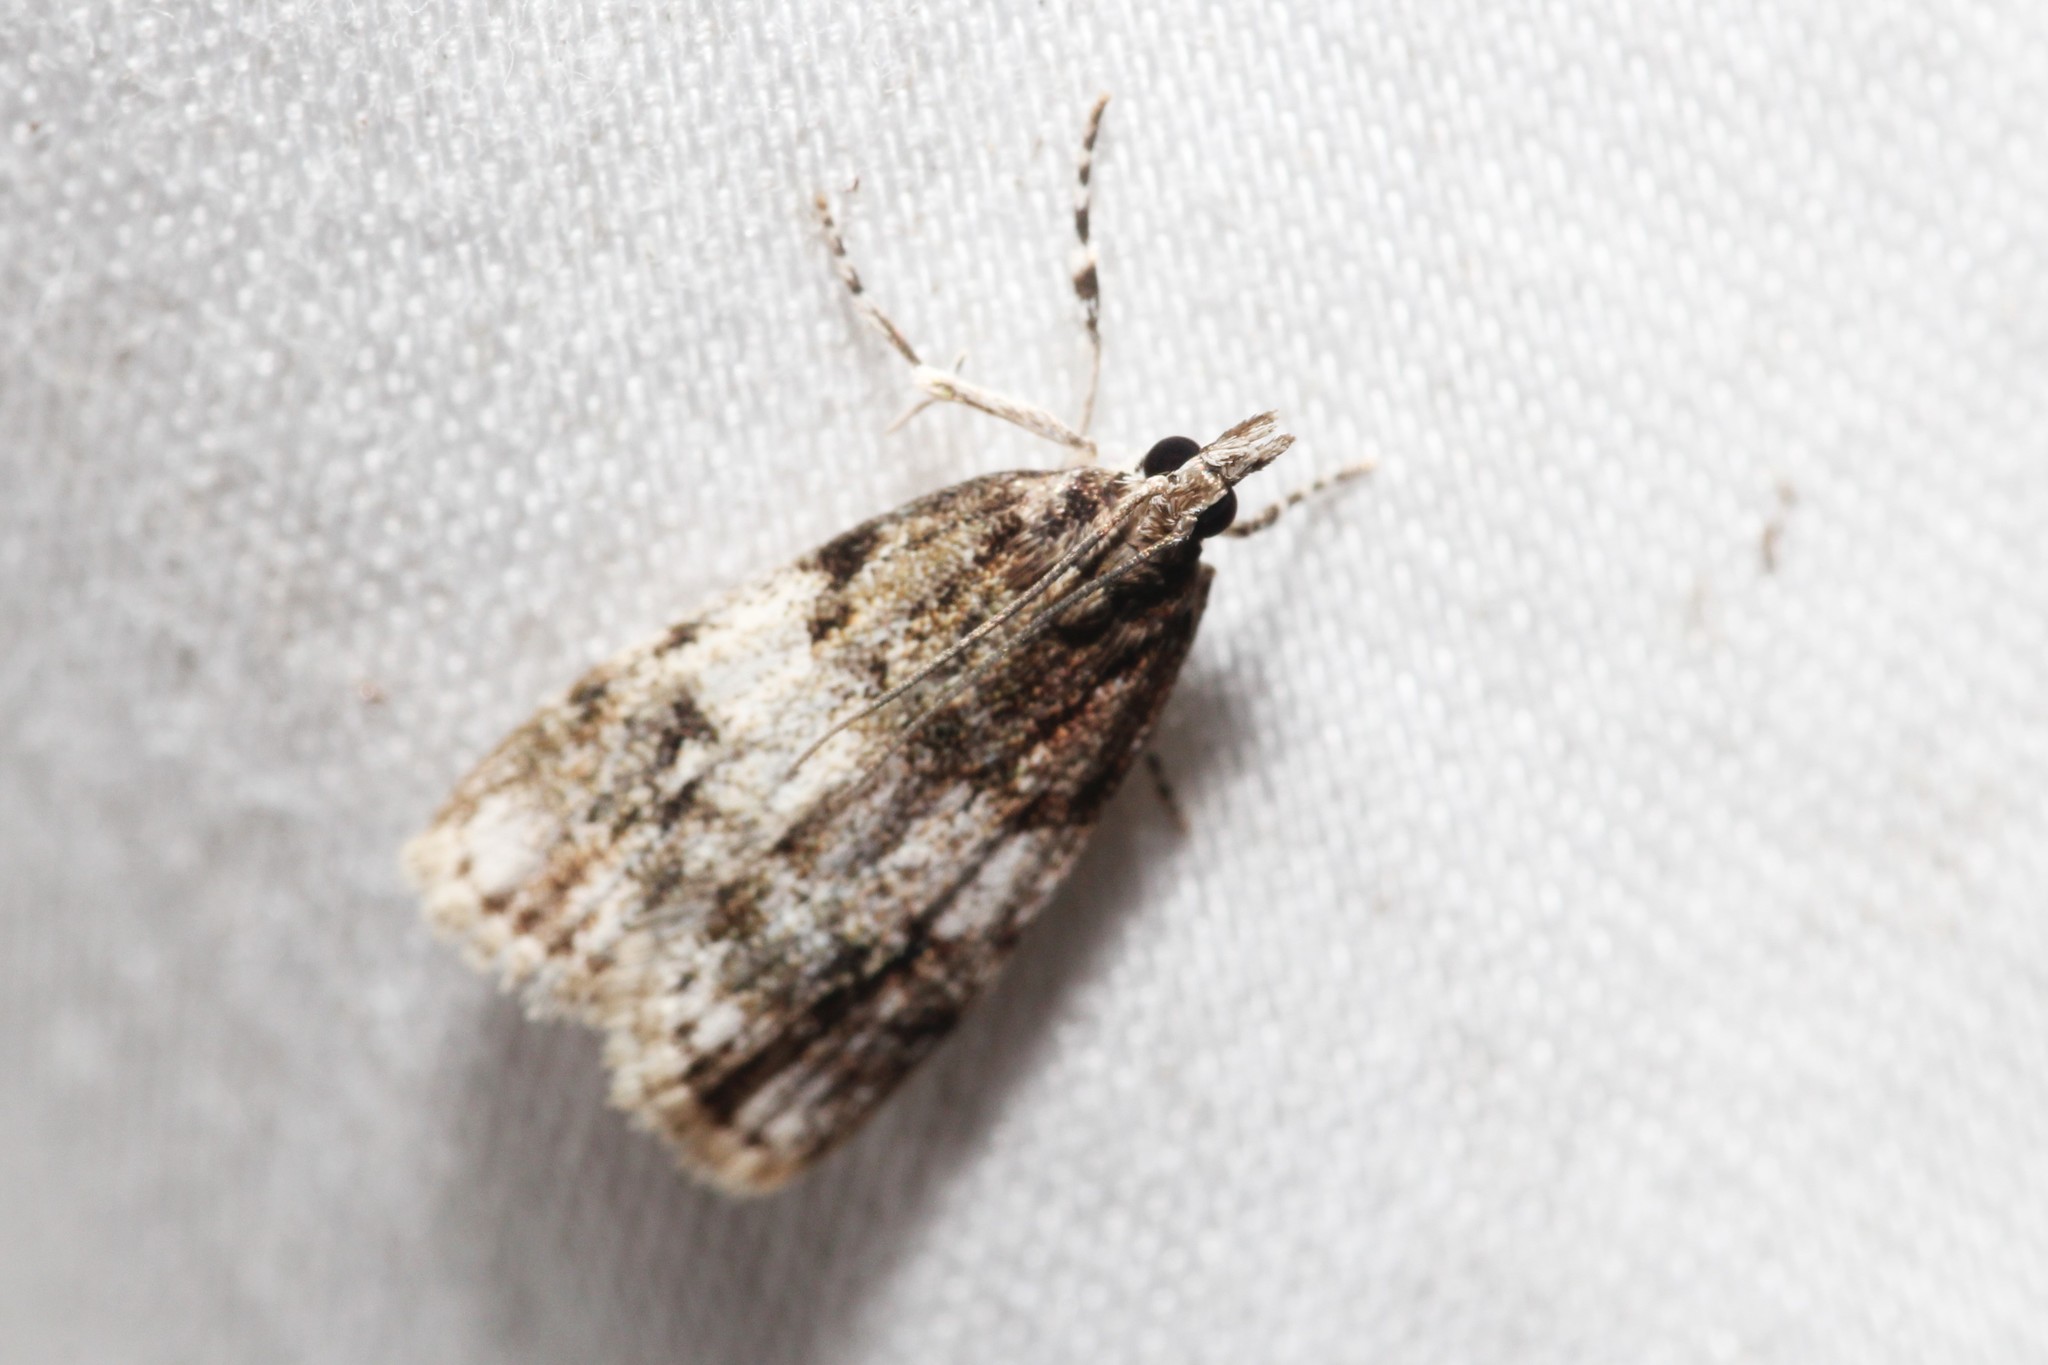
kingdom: Animalia
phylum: Arthropoda
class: Insecta
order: Lepidoptera
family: Crambidae
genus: Scoparia
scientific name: Scoparia cinereomedia
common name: Sooty scoparia moth
